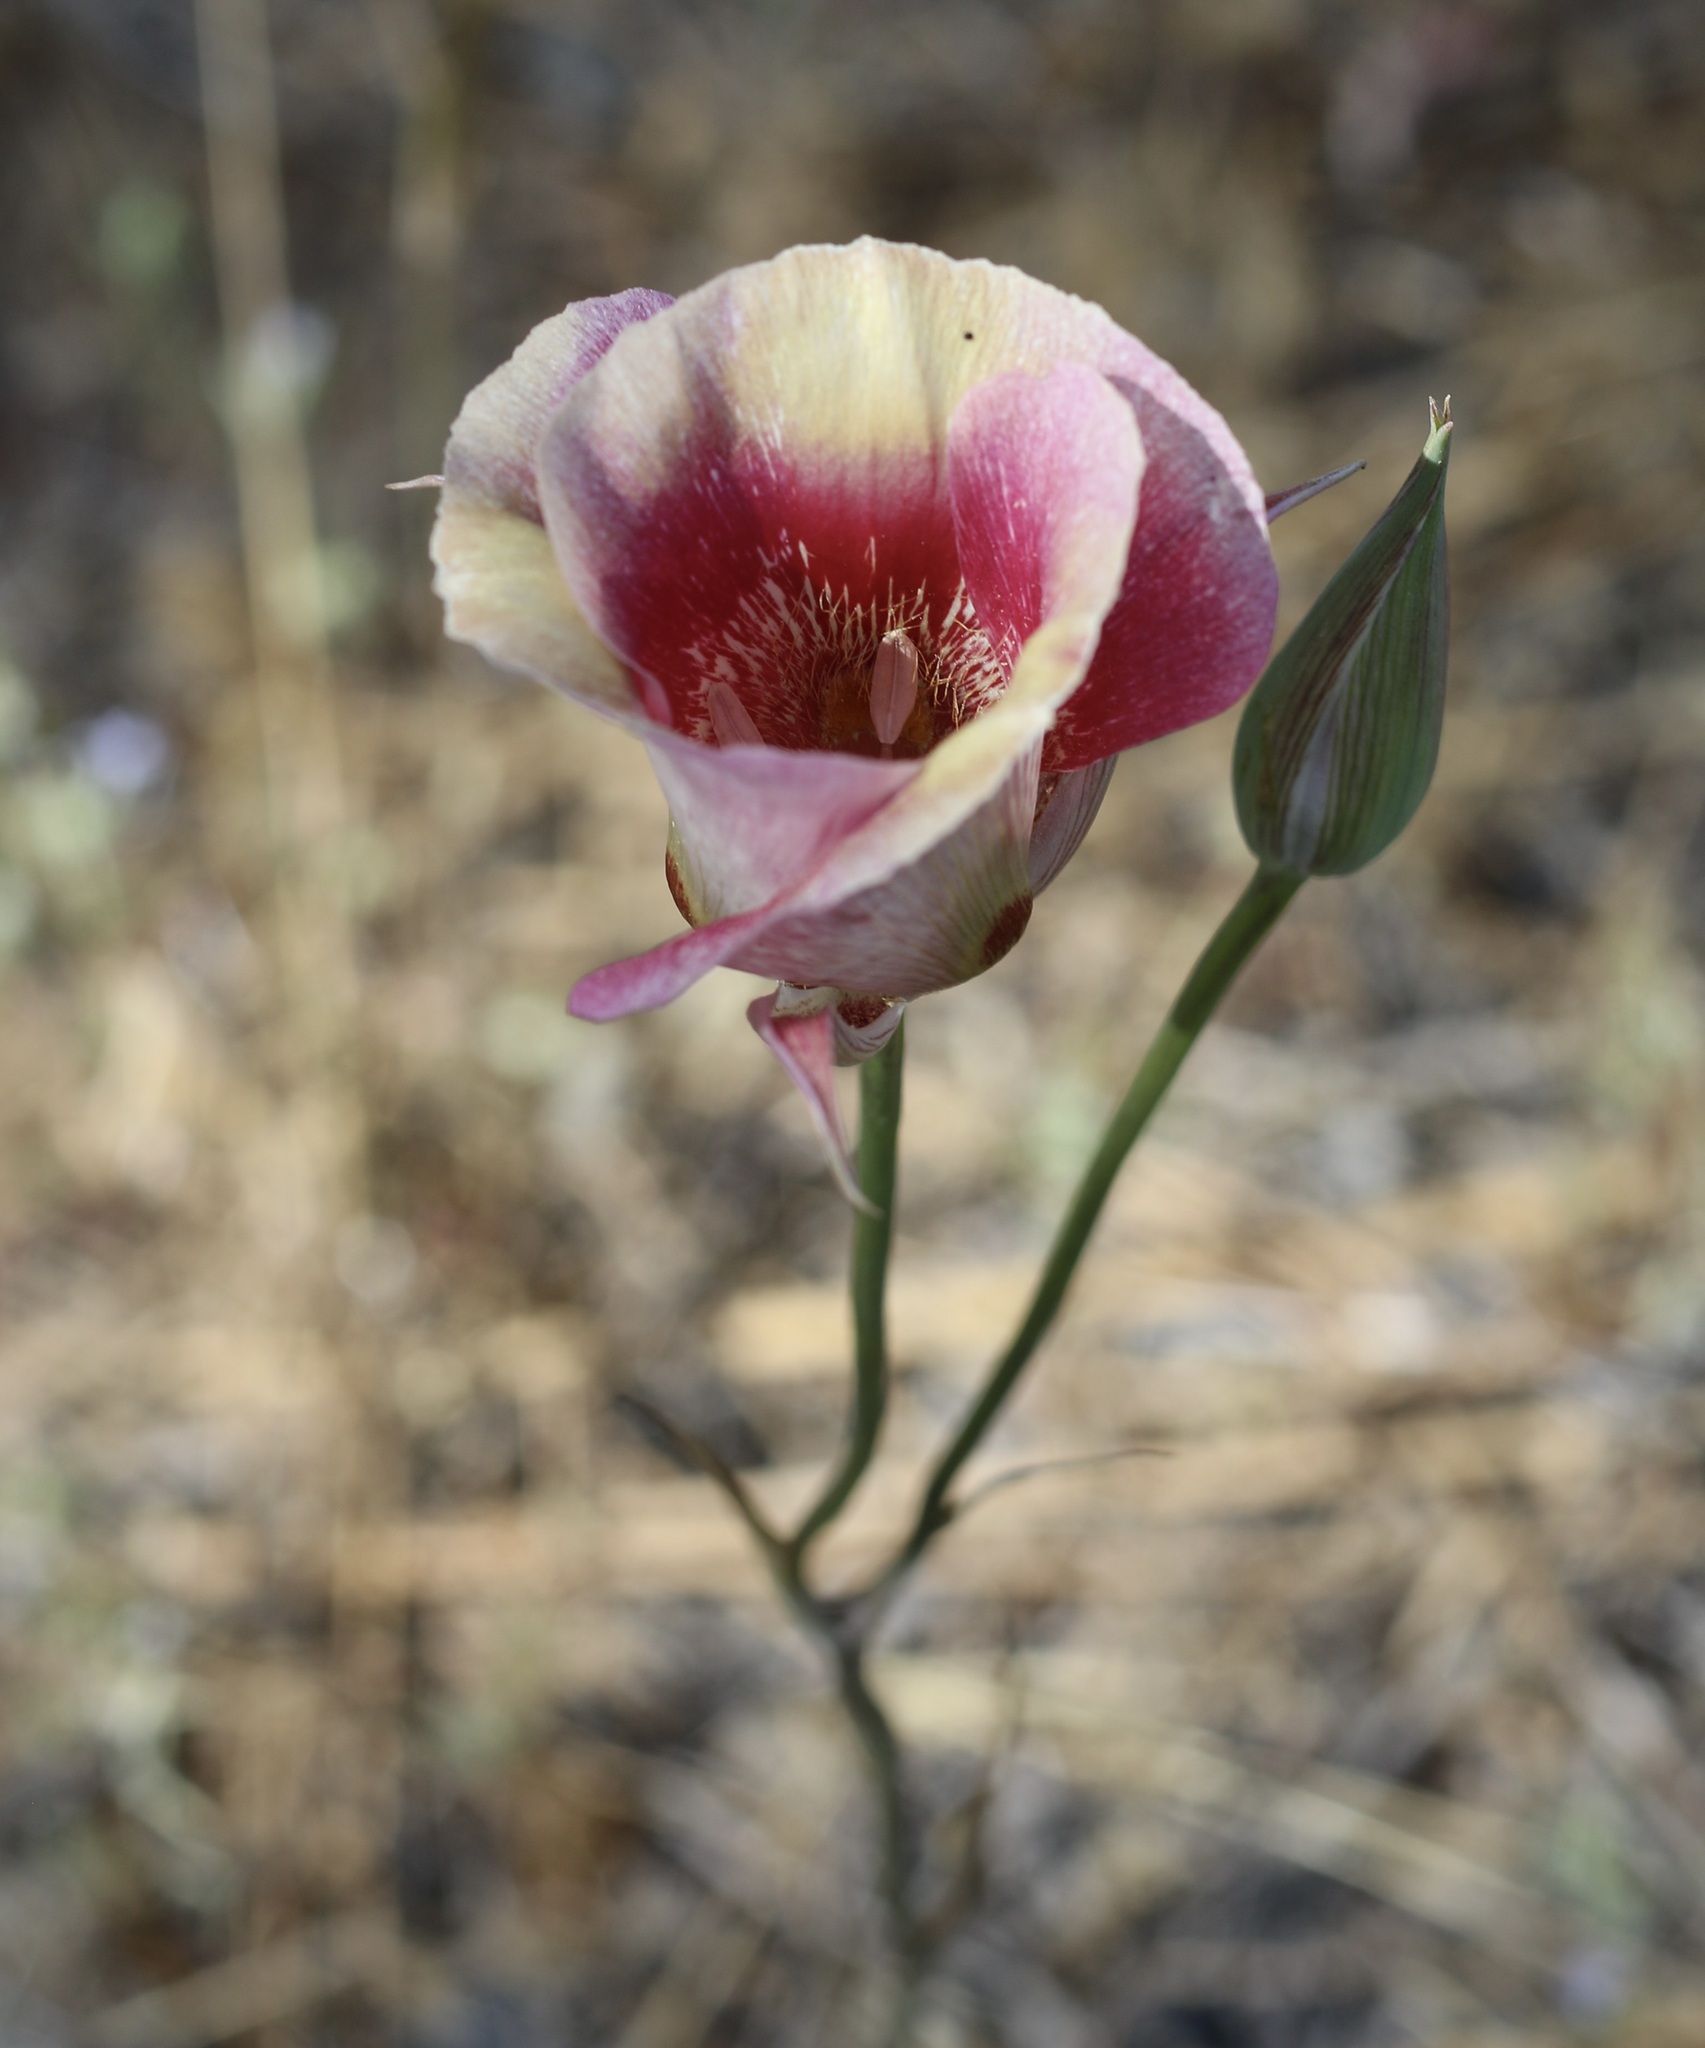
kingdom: Plantae
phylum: Tracheophyta
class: Liliopsida
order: Liliales
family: Liliaceae
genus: Calochortus
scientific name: Calochortus venustus
